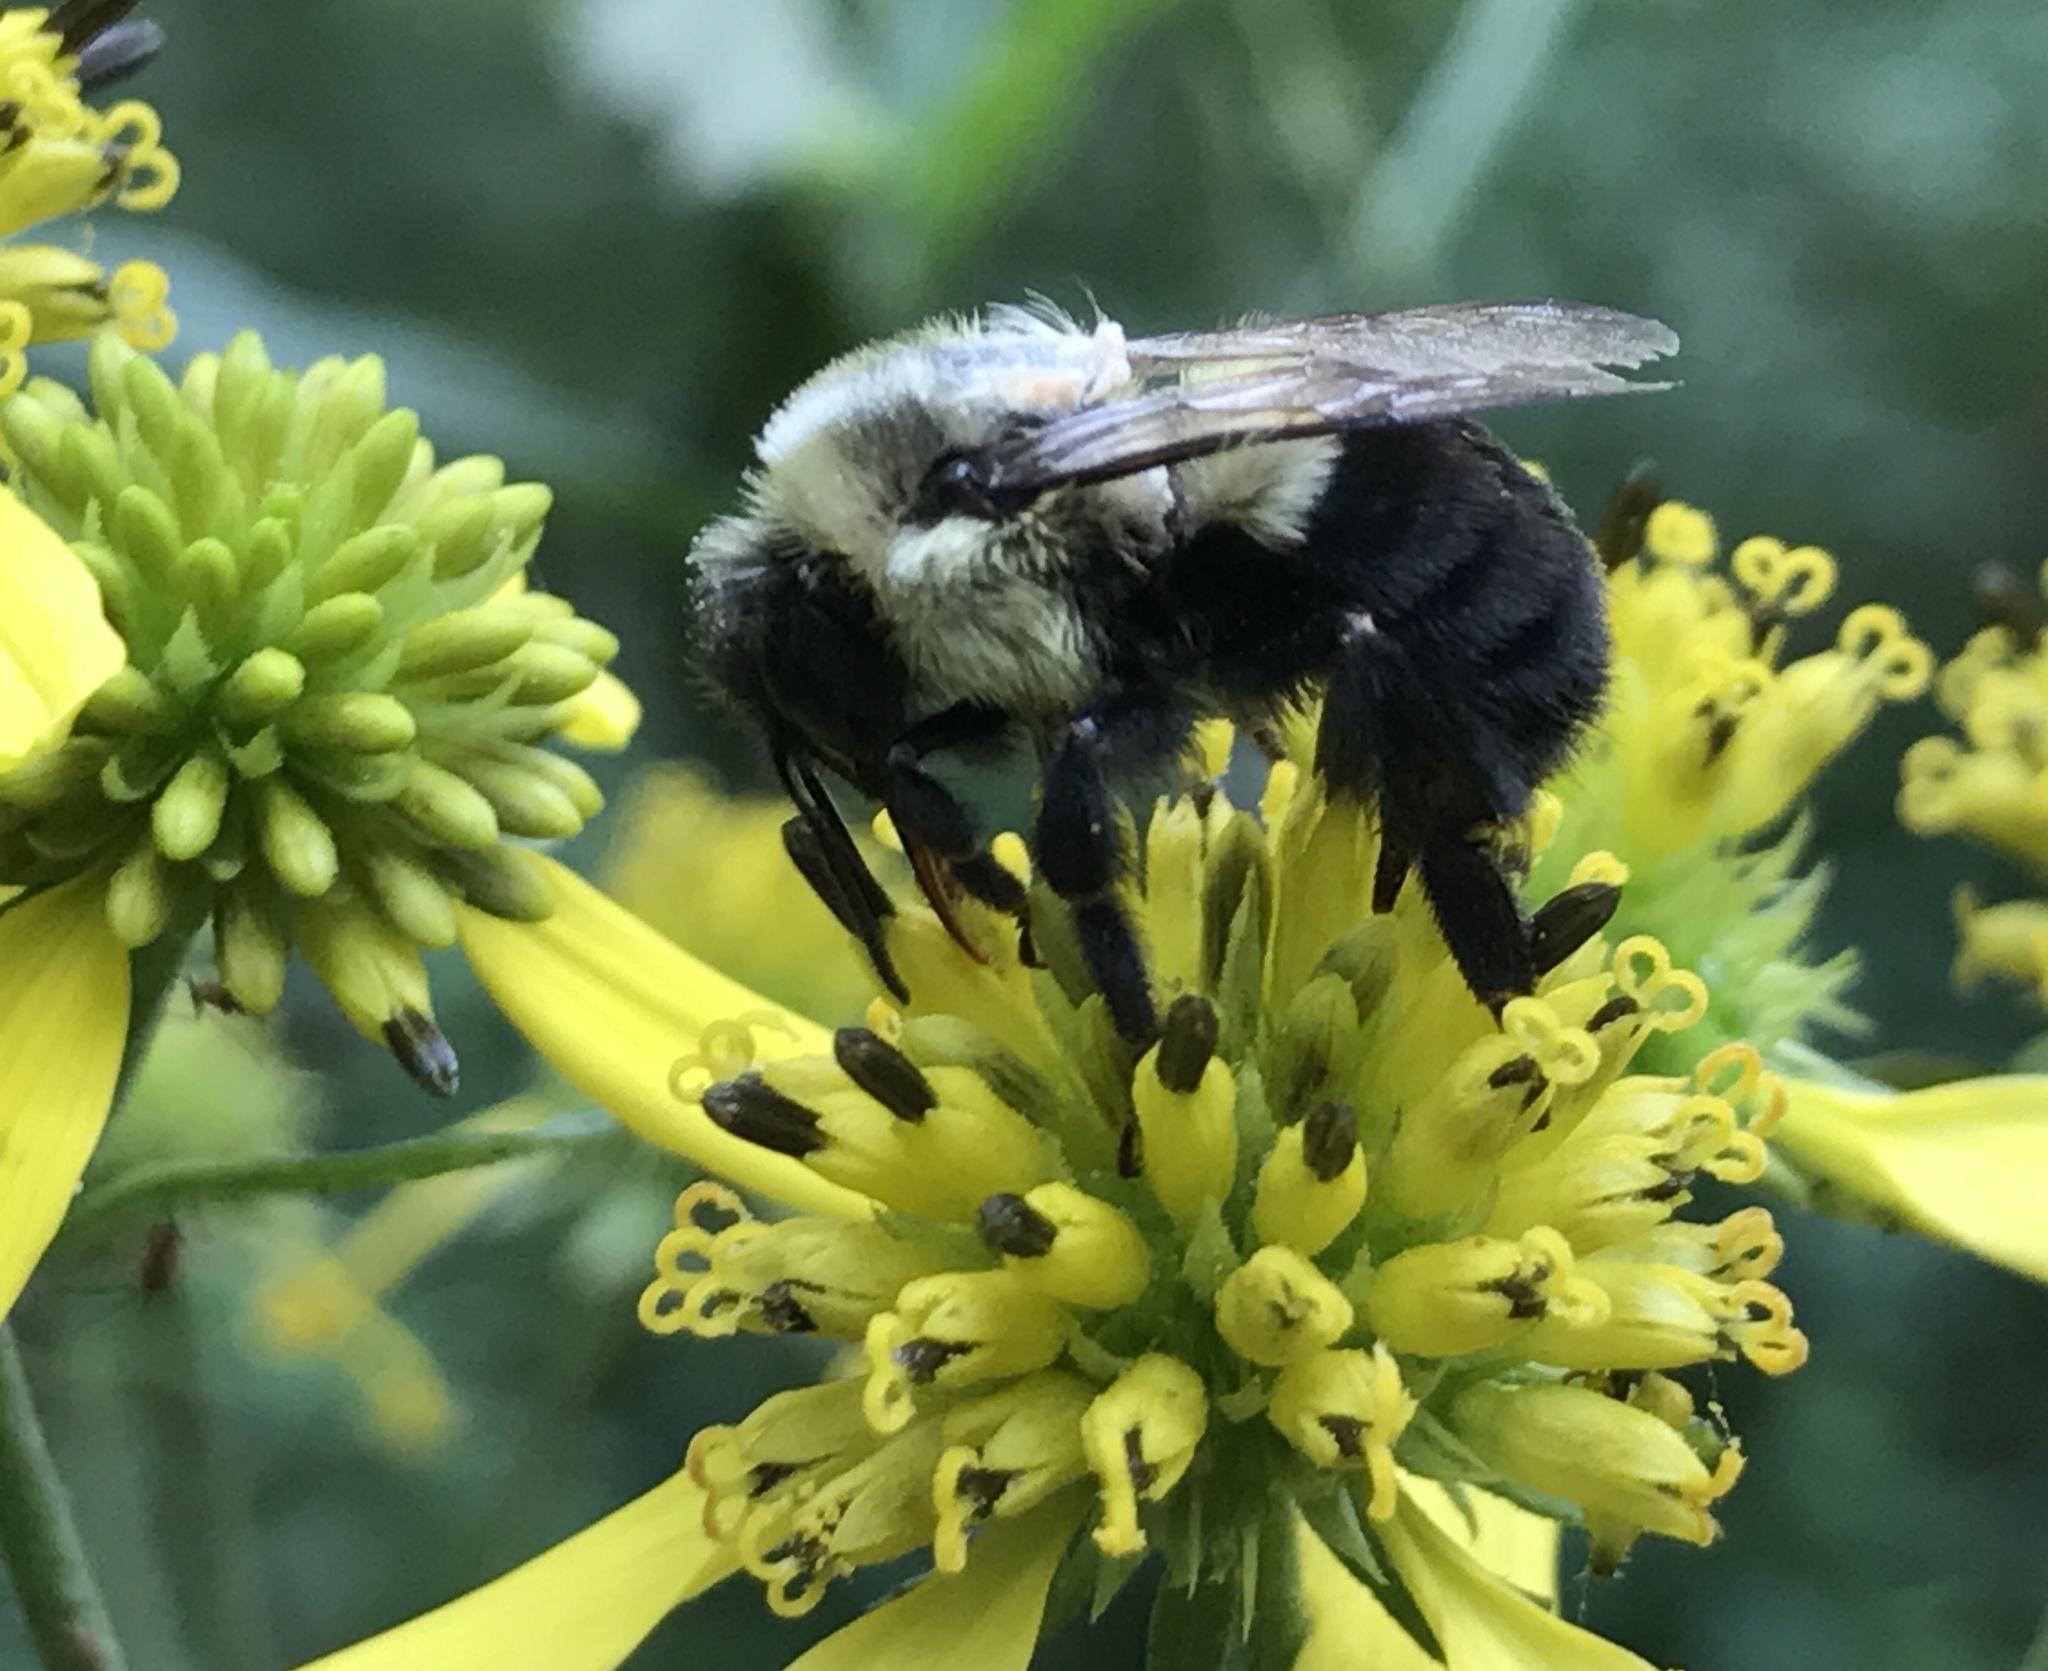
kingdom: Animalia
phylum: Arthropoda
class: Insecta
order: Hymenoptera
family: Apidae
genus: Bombus
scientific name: Bombus impatiens
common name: Common eastern bumble bee
